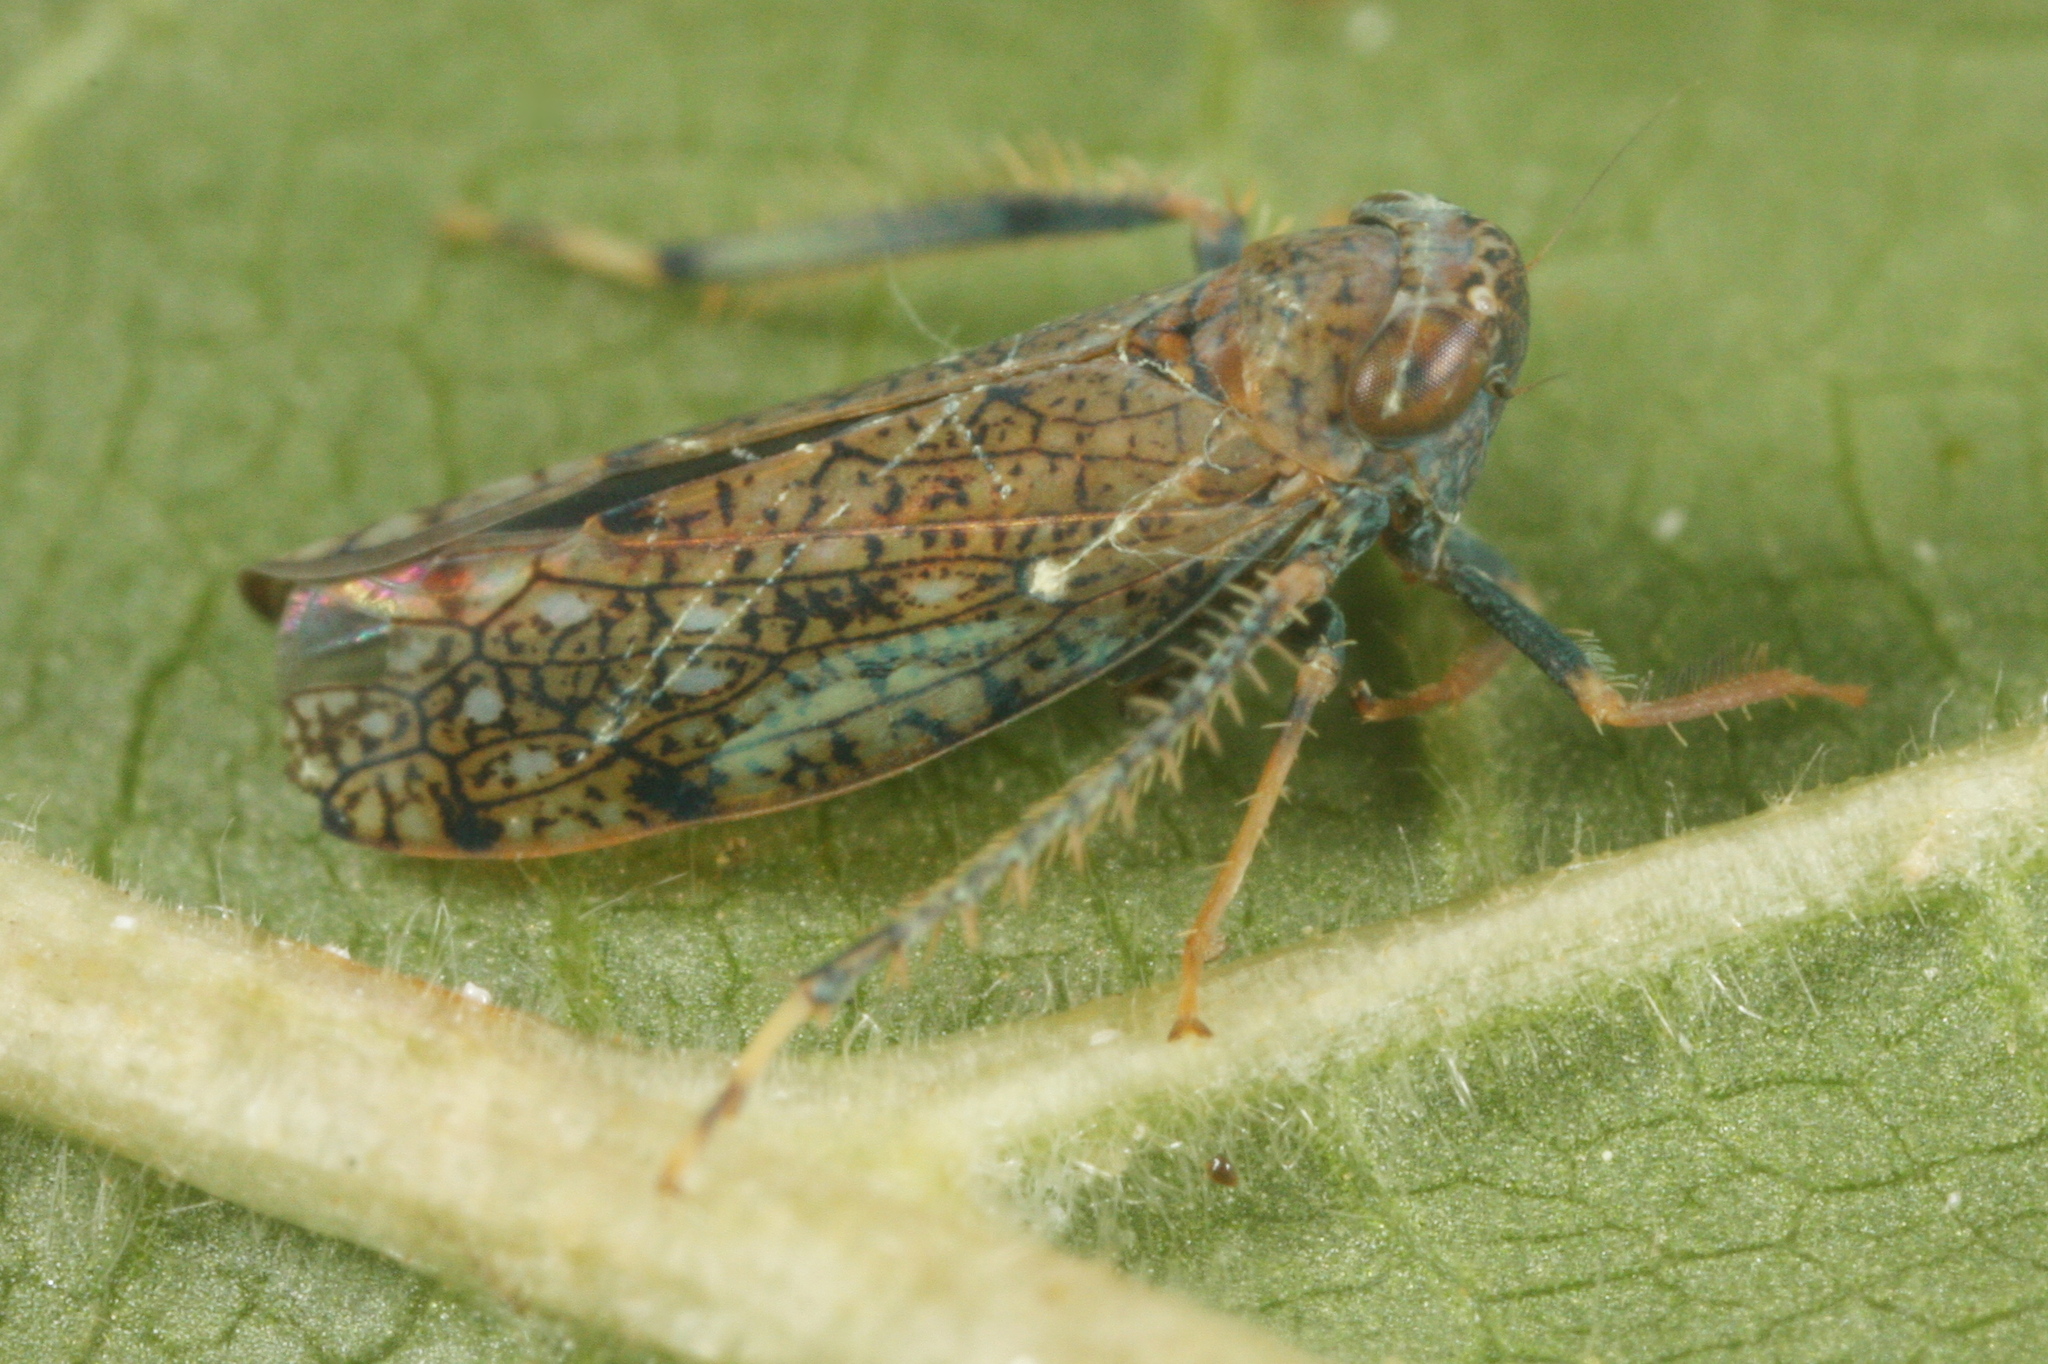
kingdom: Animalia
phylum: Arthropoda
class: Insecta
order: Hemiptera
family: Cicadellidae
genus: Orientus
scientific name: Orientus ishidae
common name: Japanese leafhopper
